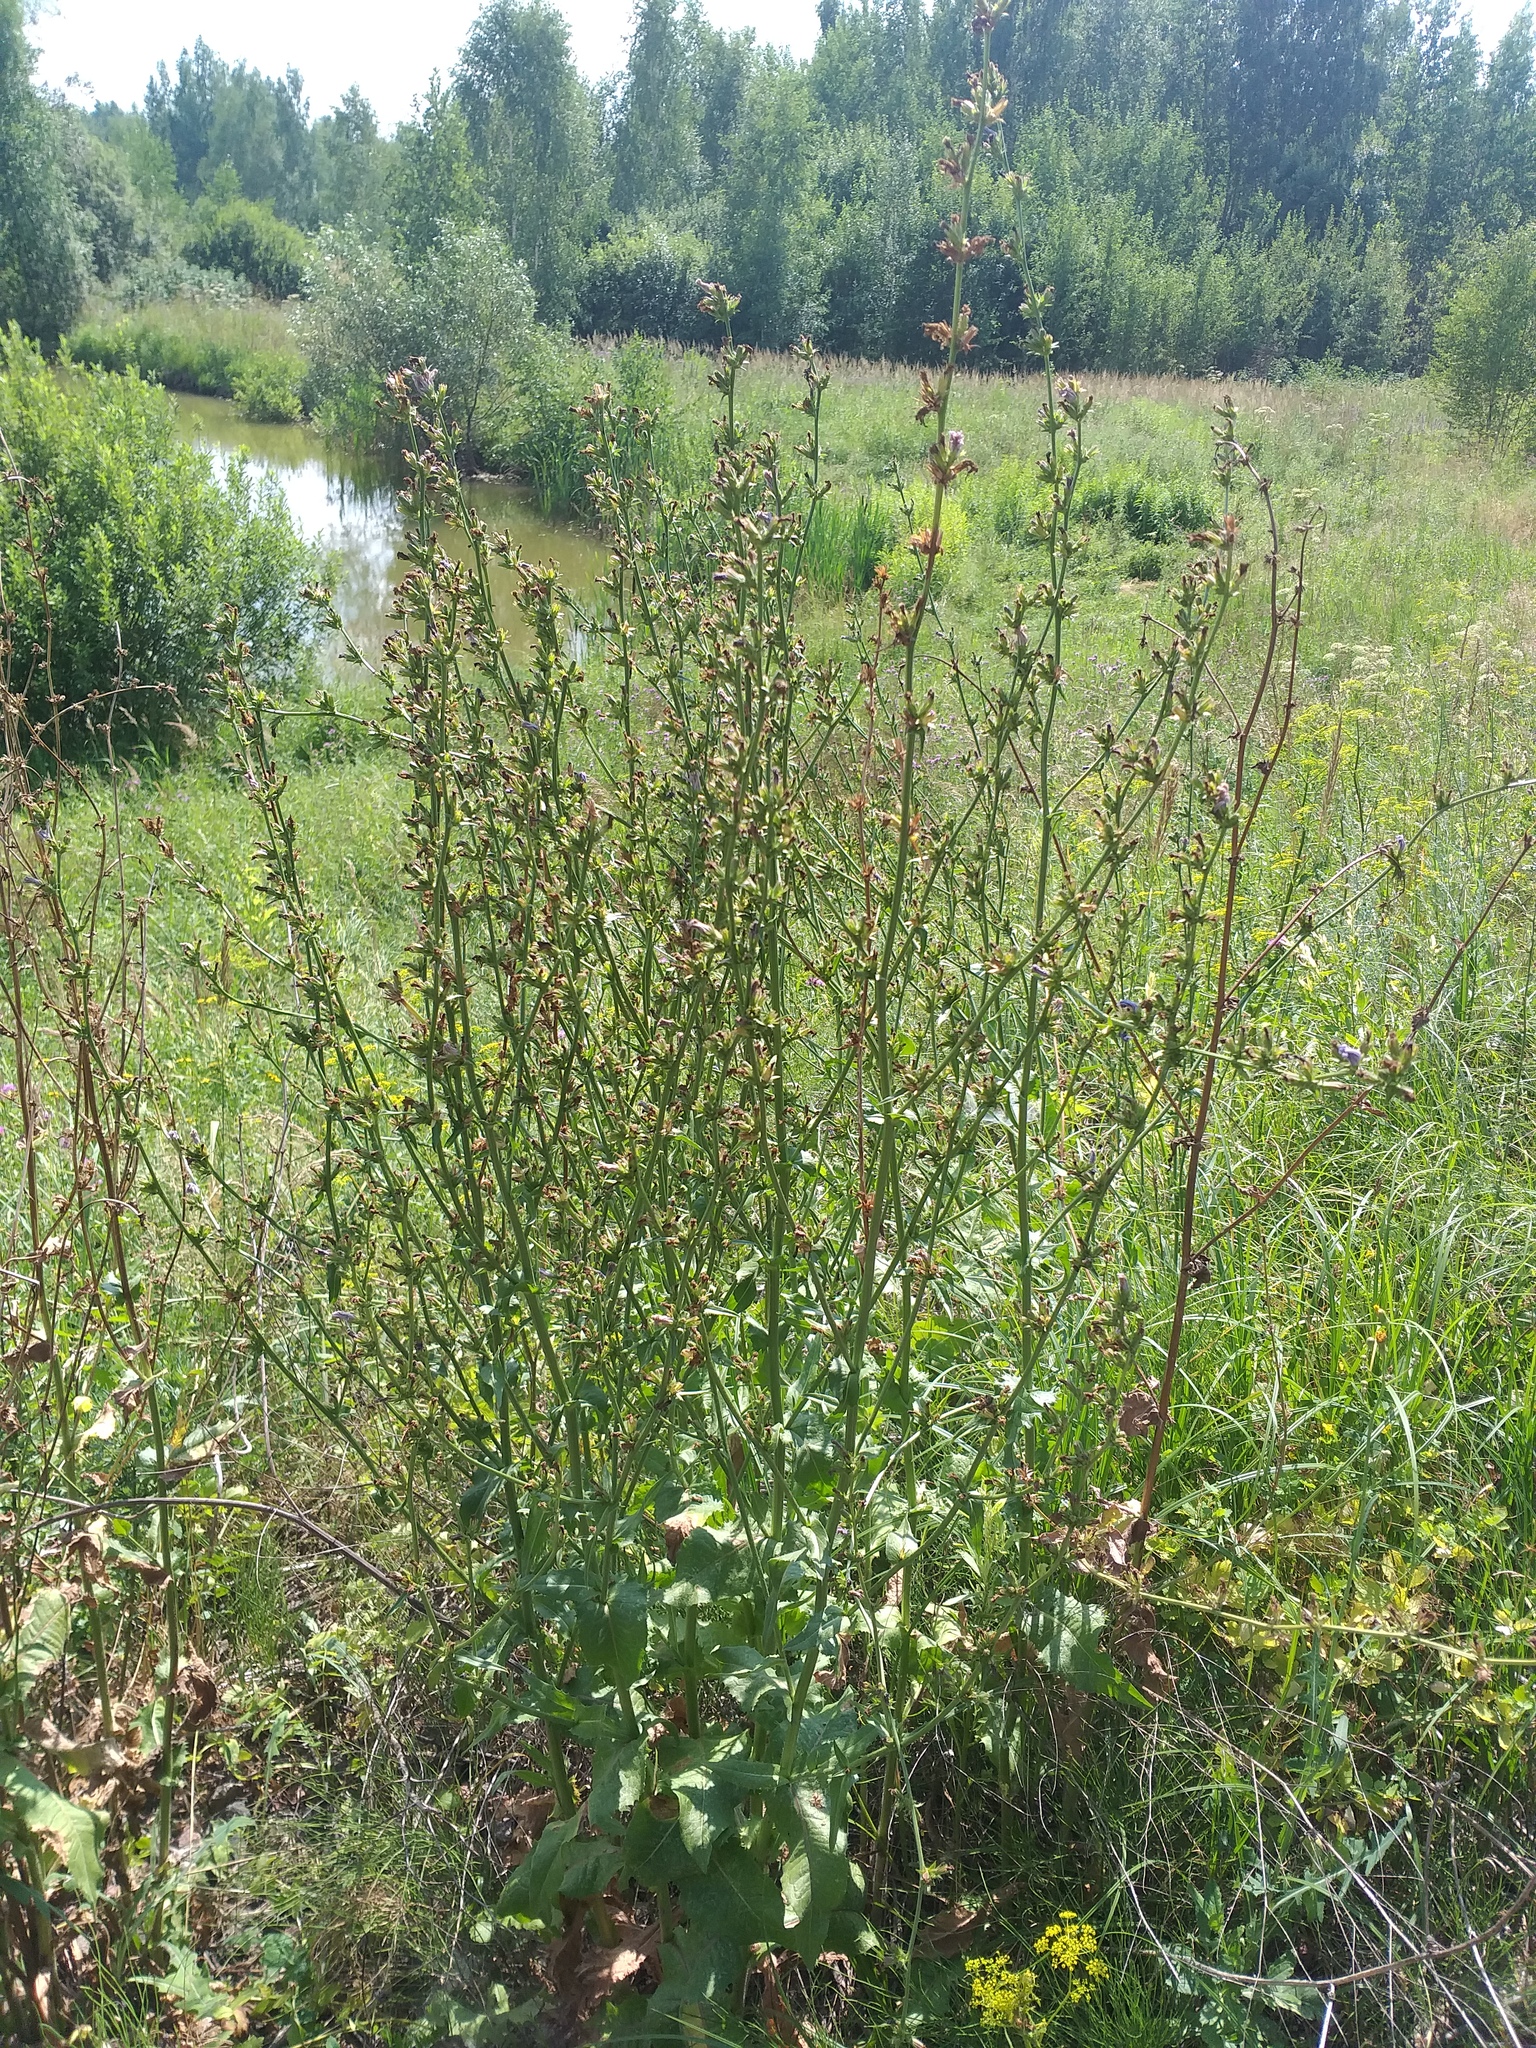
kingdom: Plantae
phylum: Tracheophyta
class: Magnoliopsida
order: Asterales
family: Asteraceae
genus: Cichorium
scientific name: Cichorium intybus
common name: Chicory
